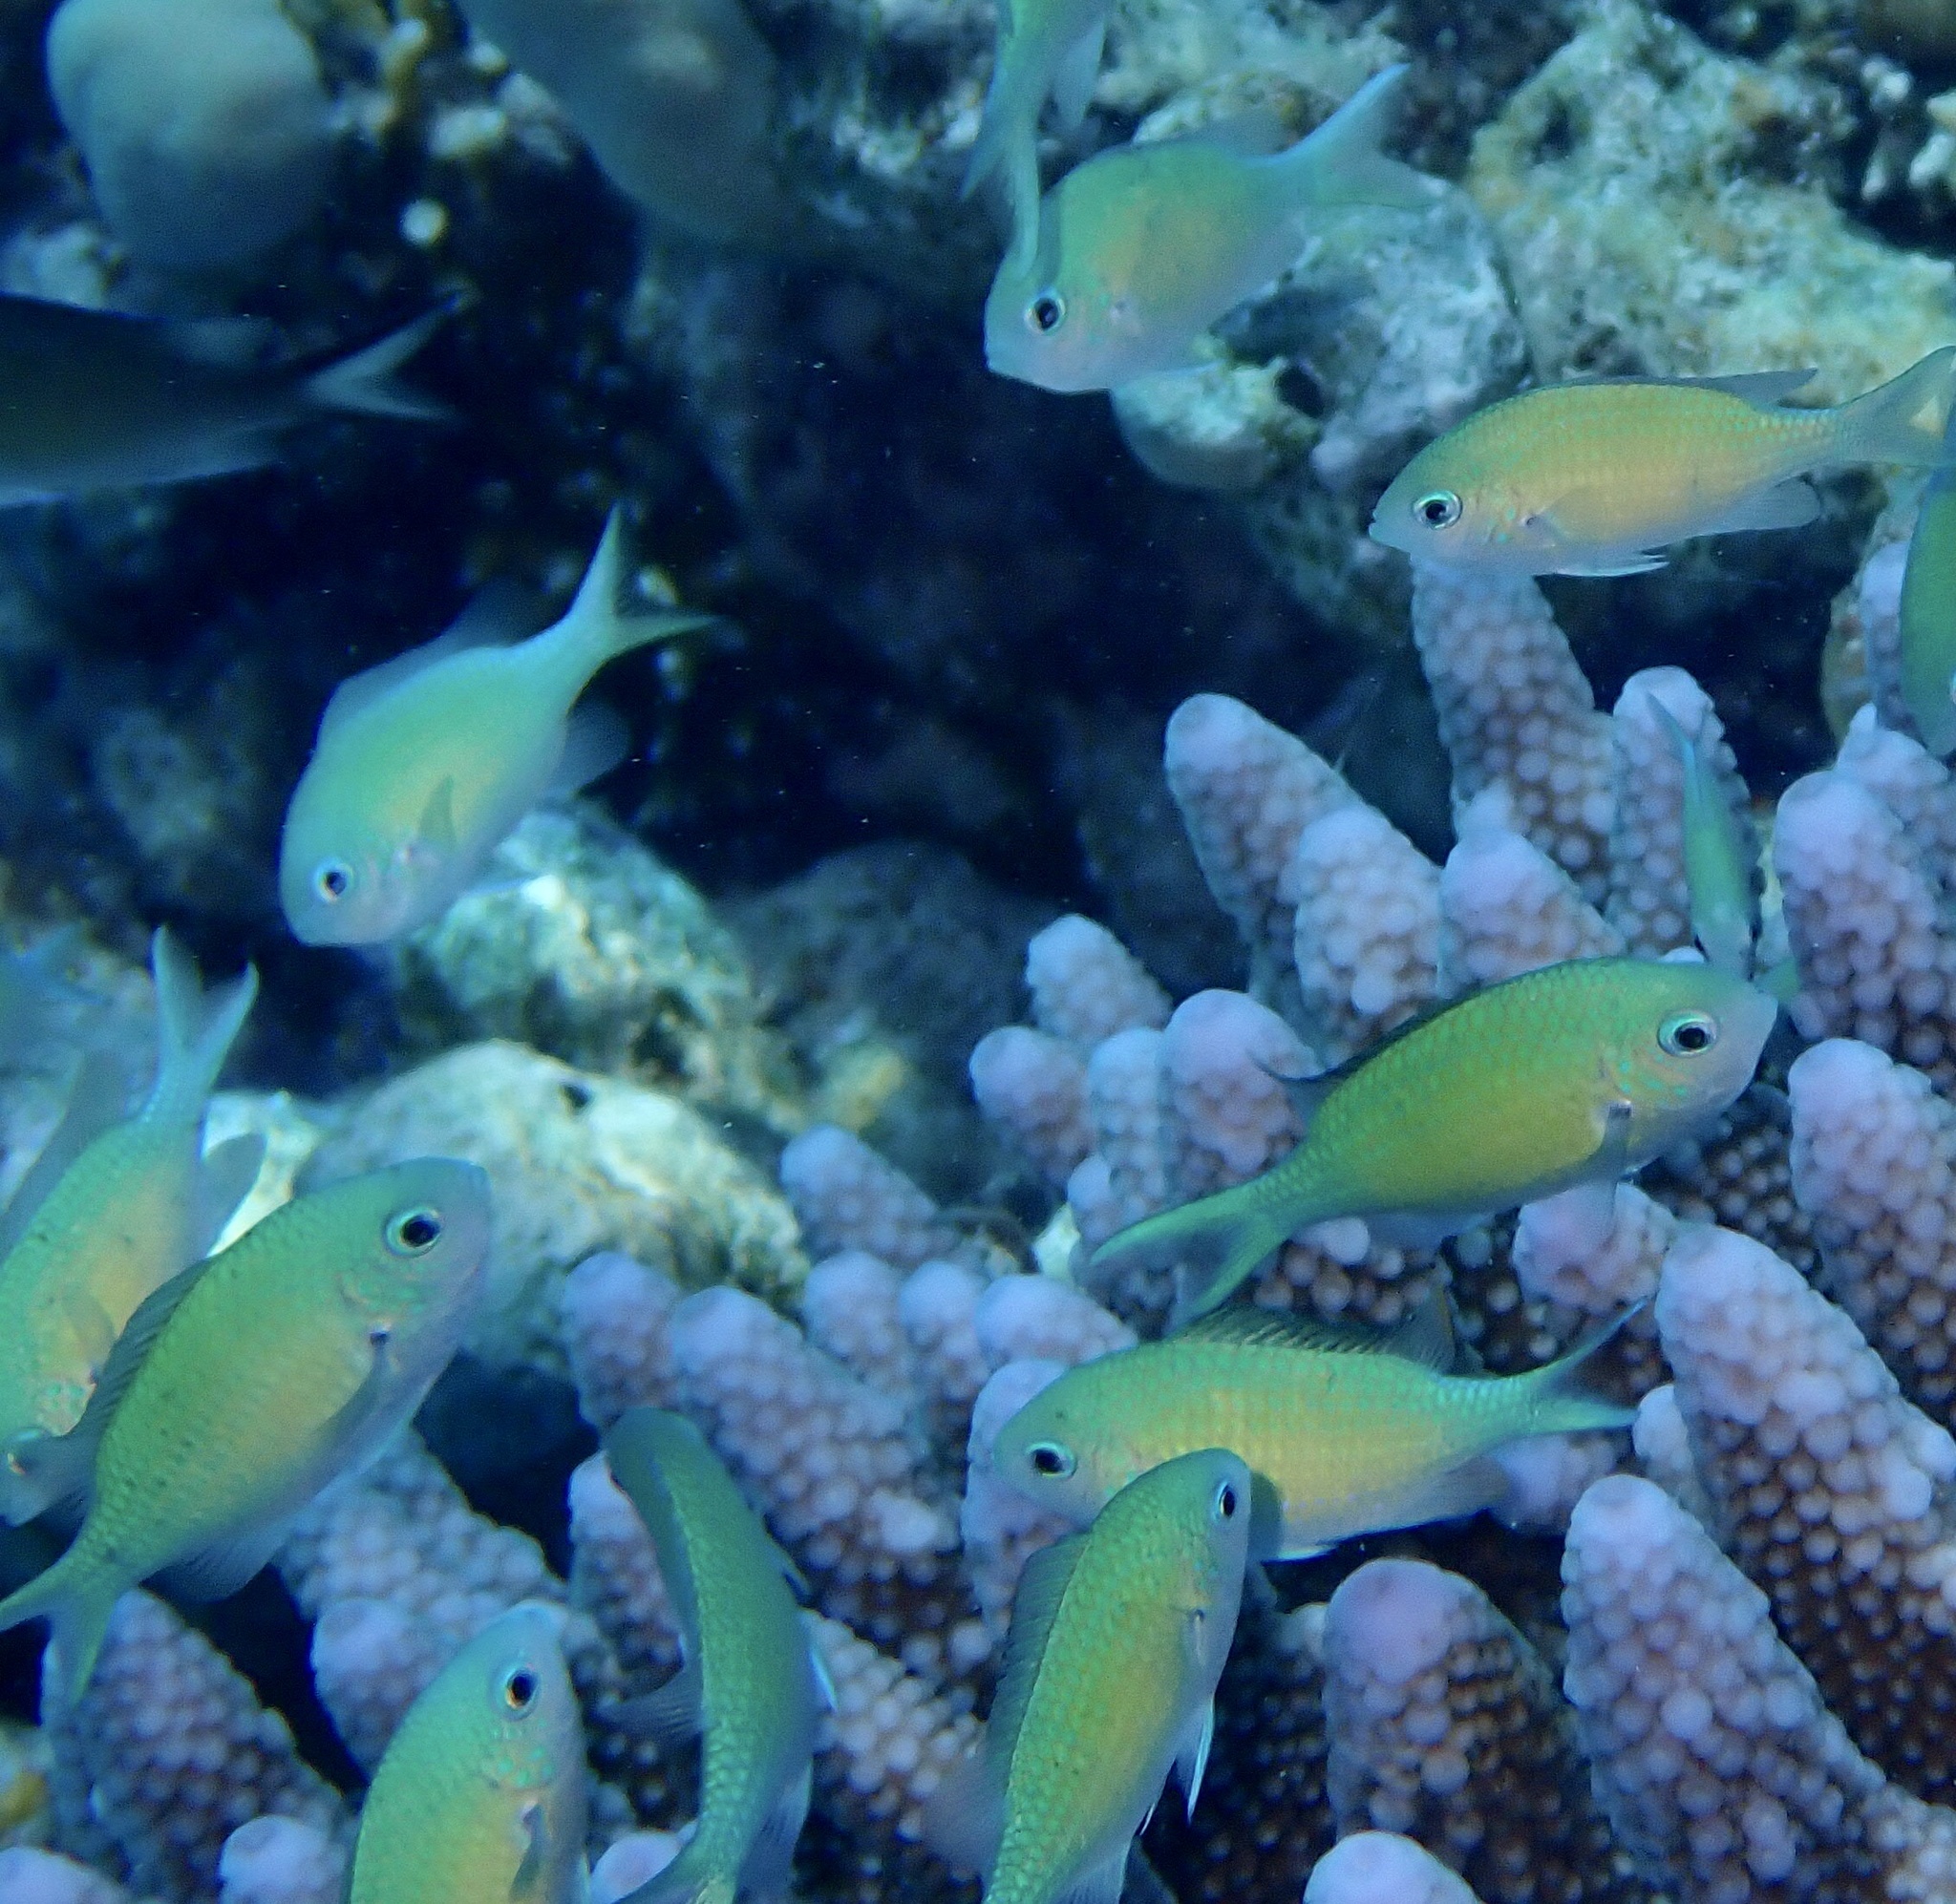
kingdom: Animalia
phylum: Chordata
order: Perciformes
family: Pomacentridae
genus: Chromis
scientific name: Chromis viridis
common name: Blue-green chromis
